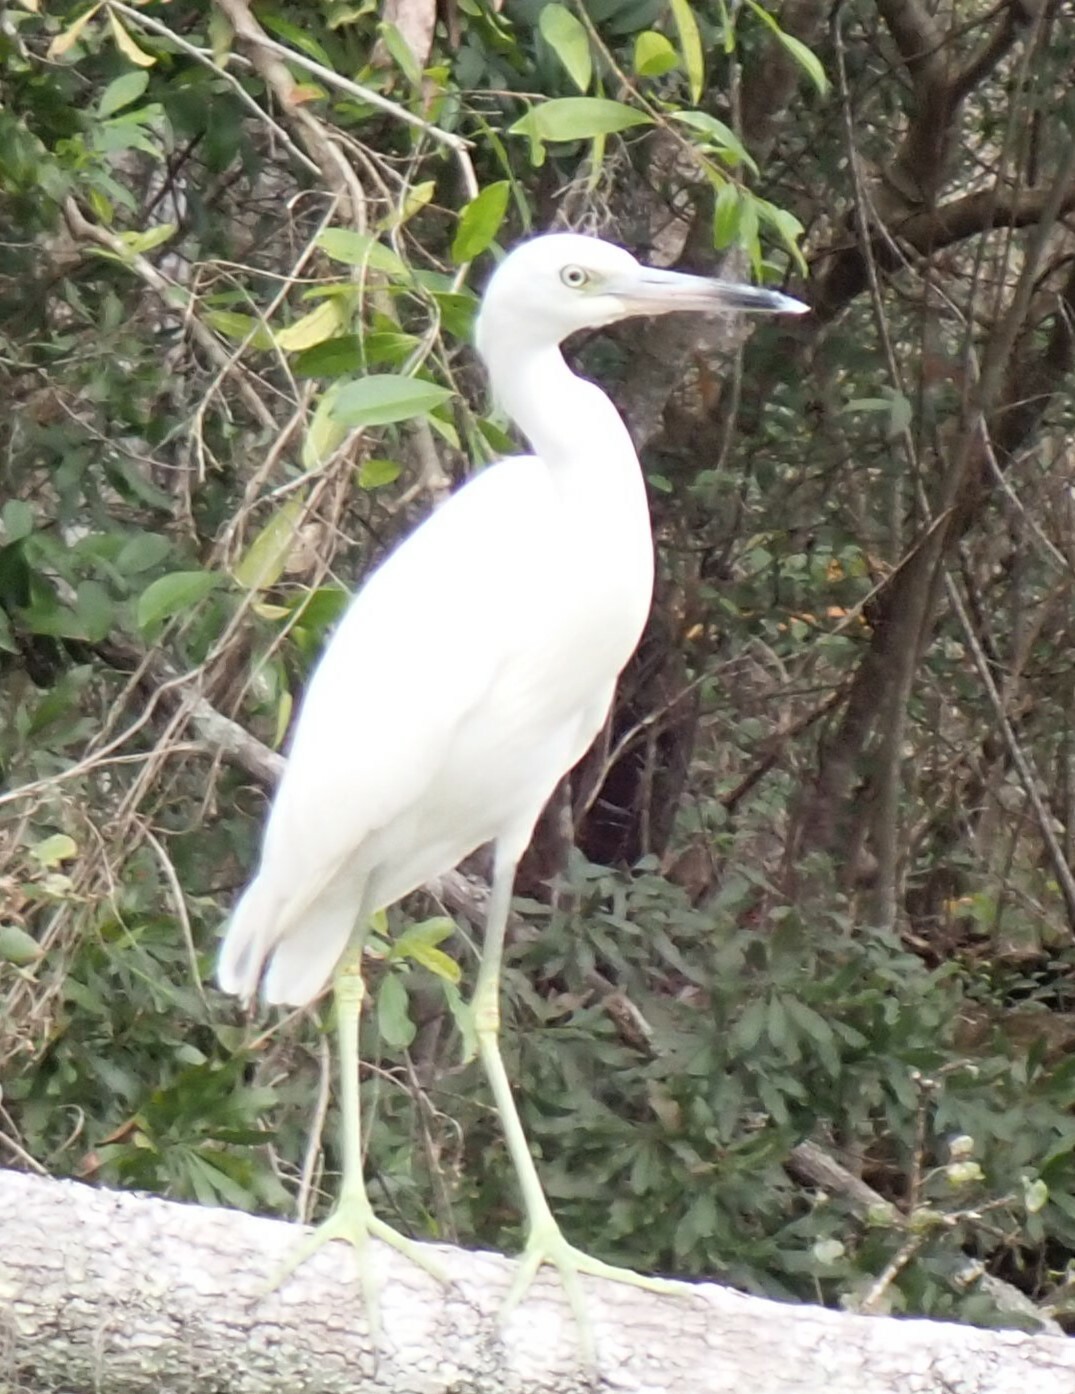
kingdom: Animalia
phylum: Chordata
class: Aves
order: Pelecaniformes
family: Ardeidae
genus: Egretta
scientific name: Egretta caerulea
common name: Little blue heron
